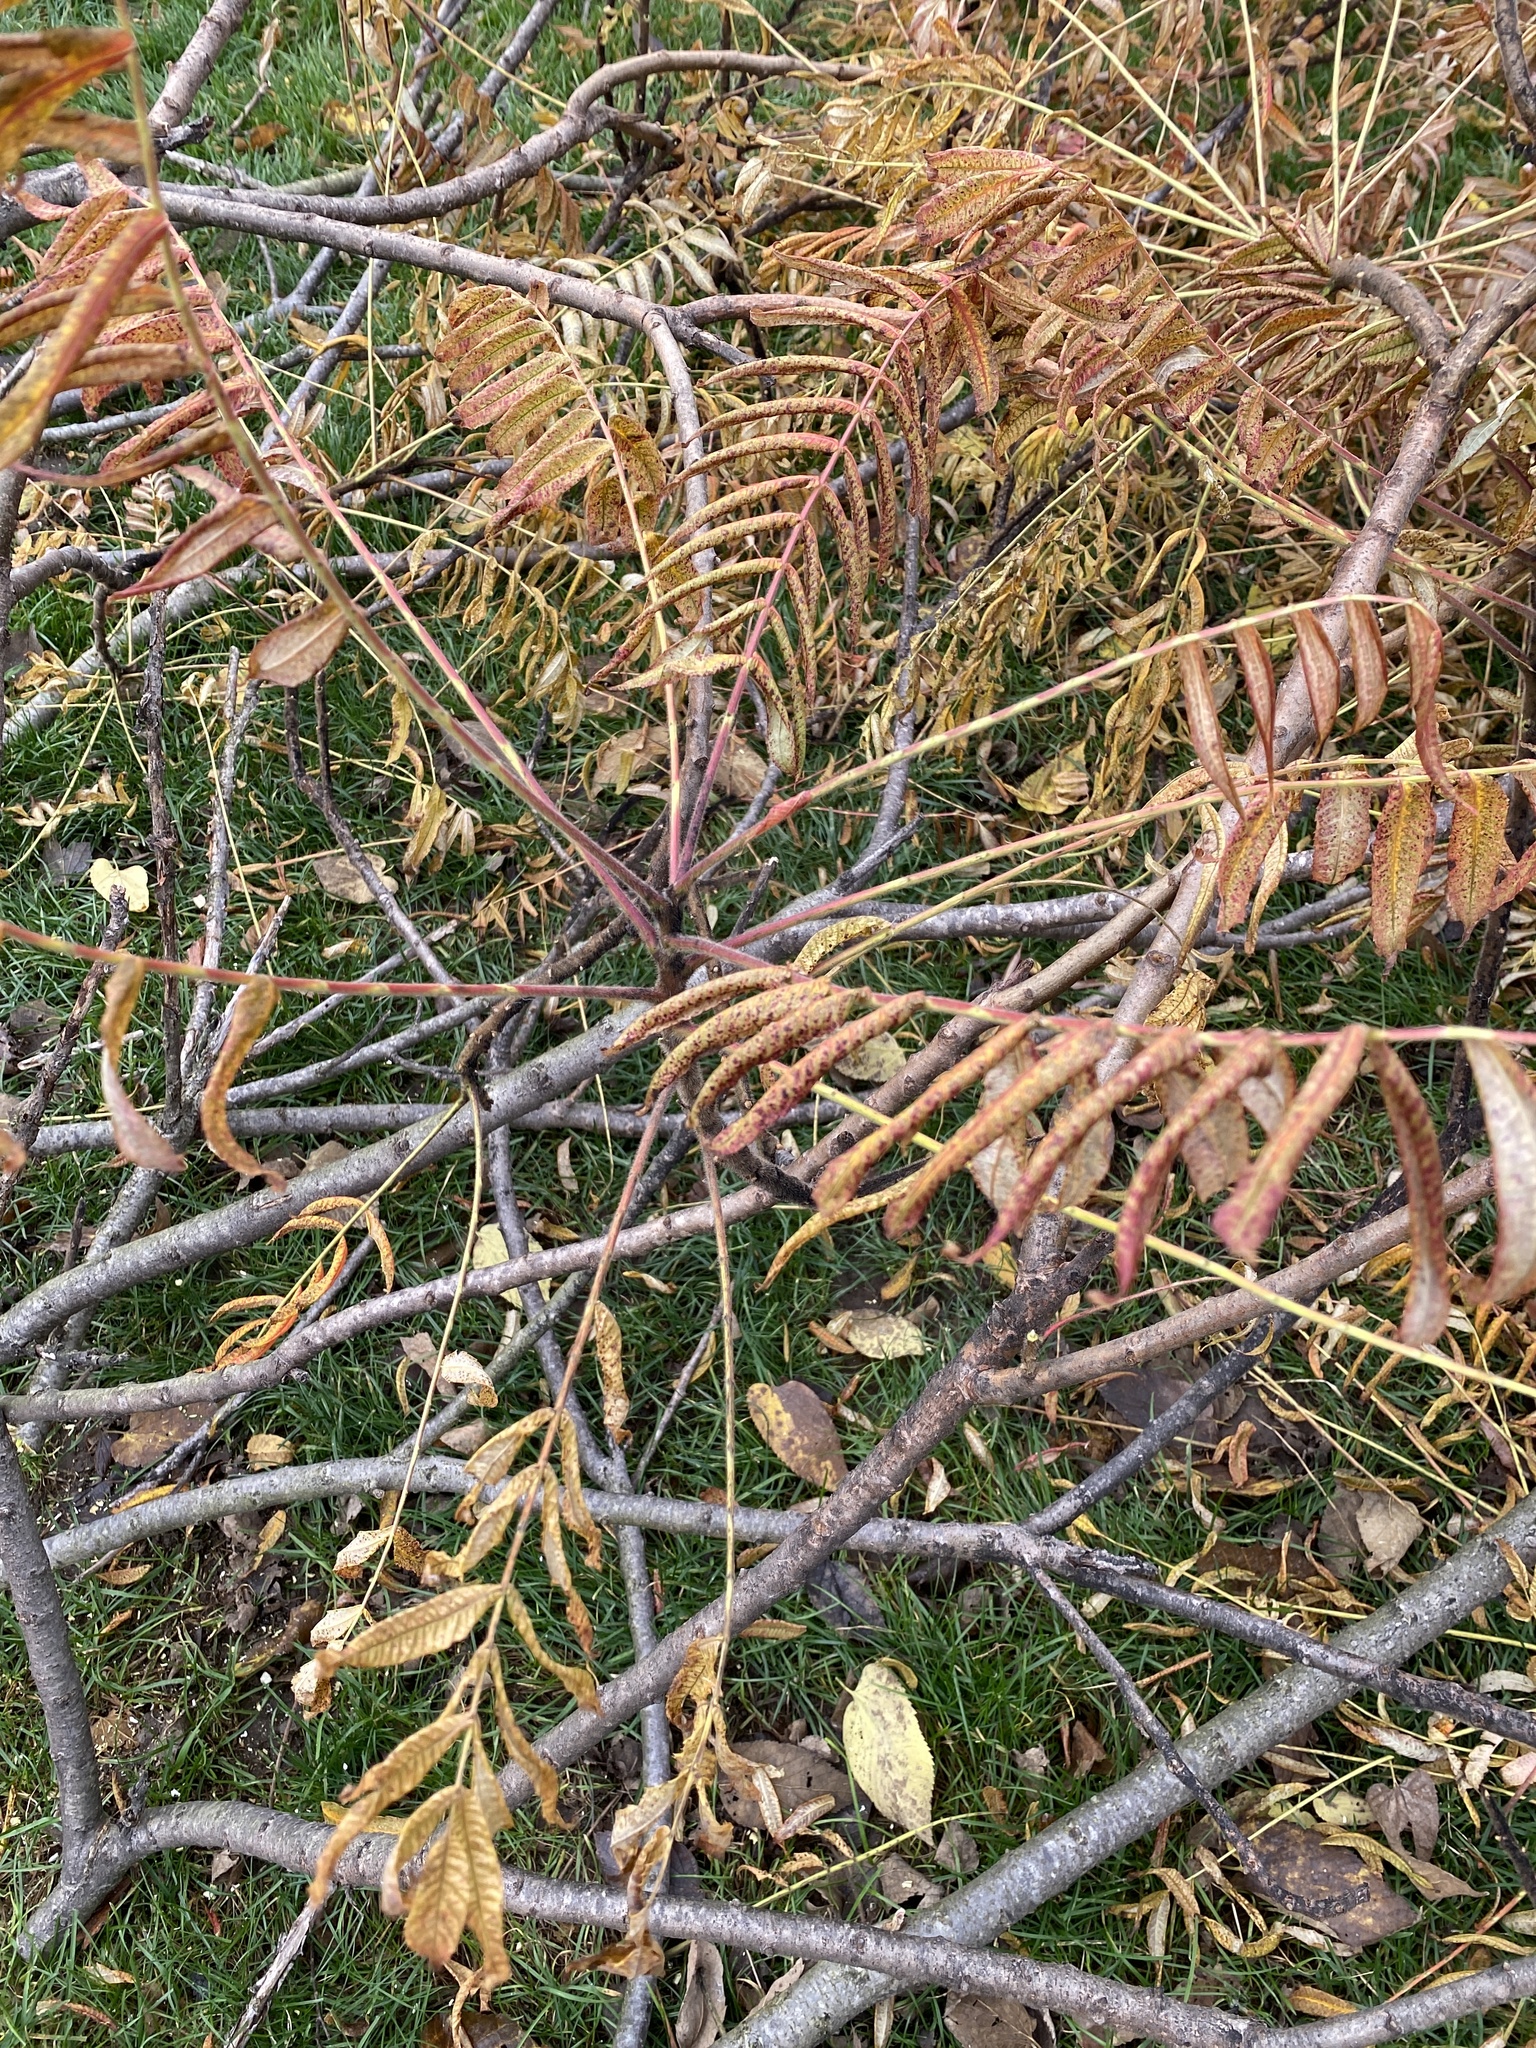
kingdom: Plantae
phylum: Tracheophyta
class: Magnoliopsida
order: Sapindales
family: Anacardiaceae
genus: Rhus
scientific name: Rhus typhina
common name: Staghorn sumac
